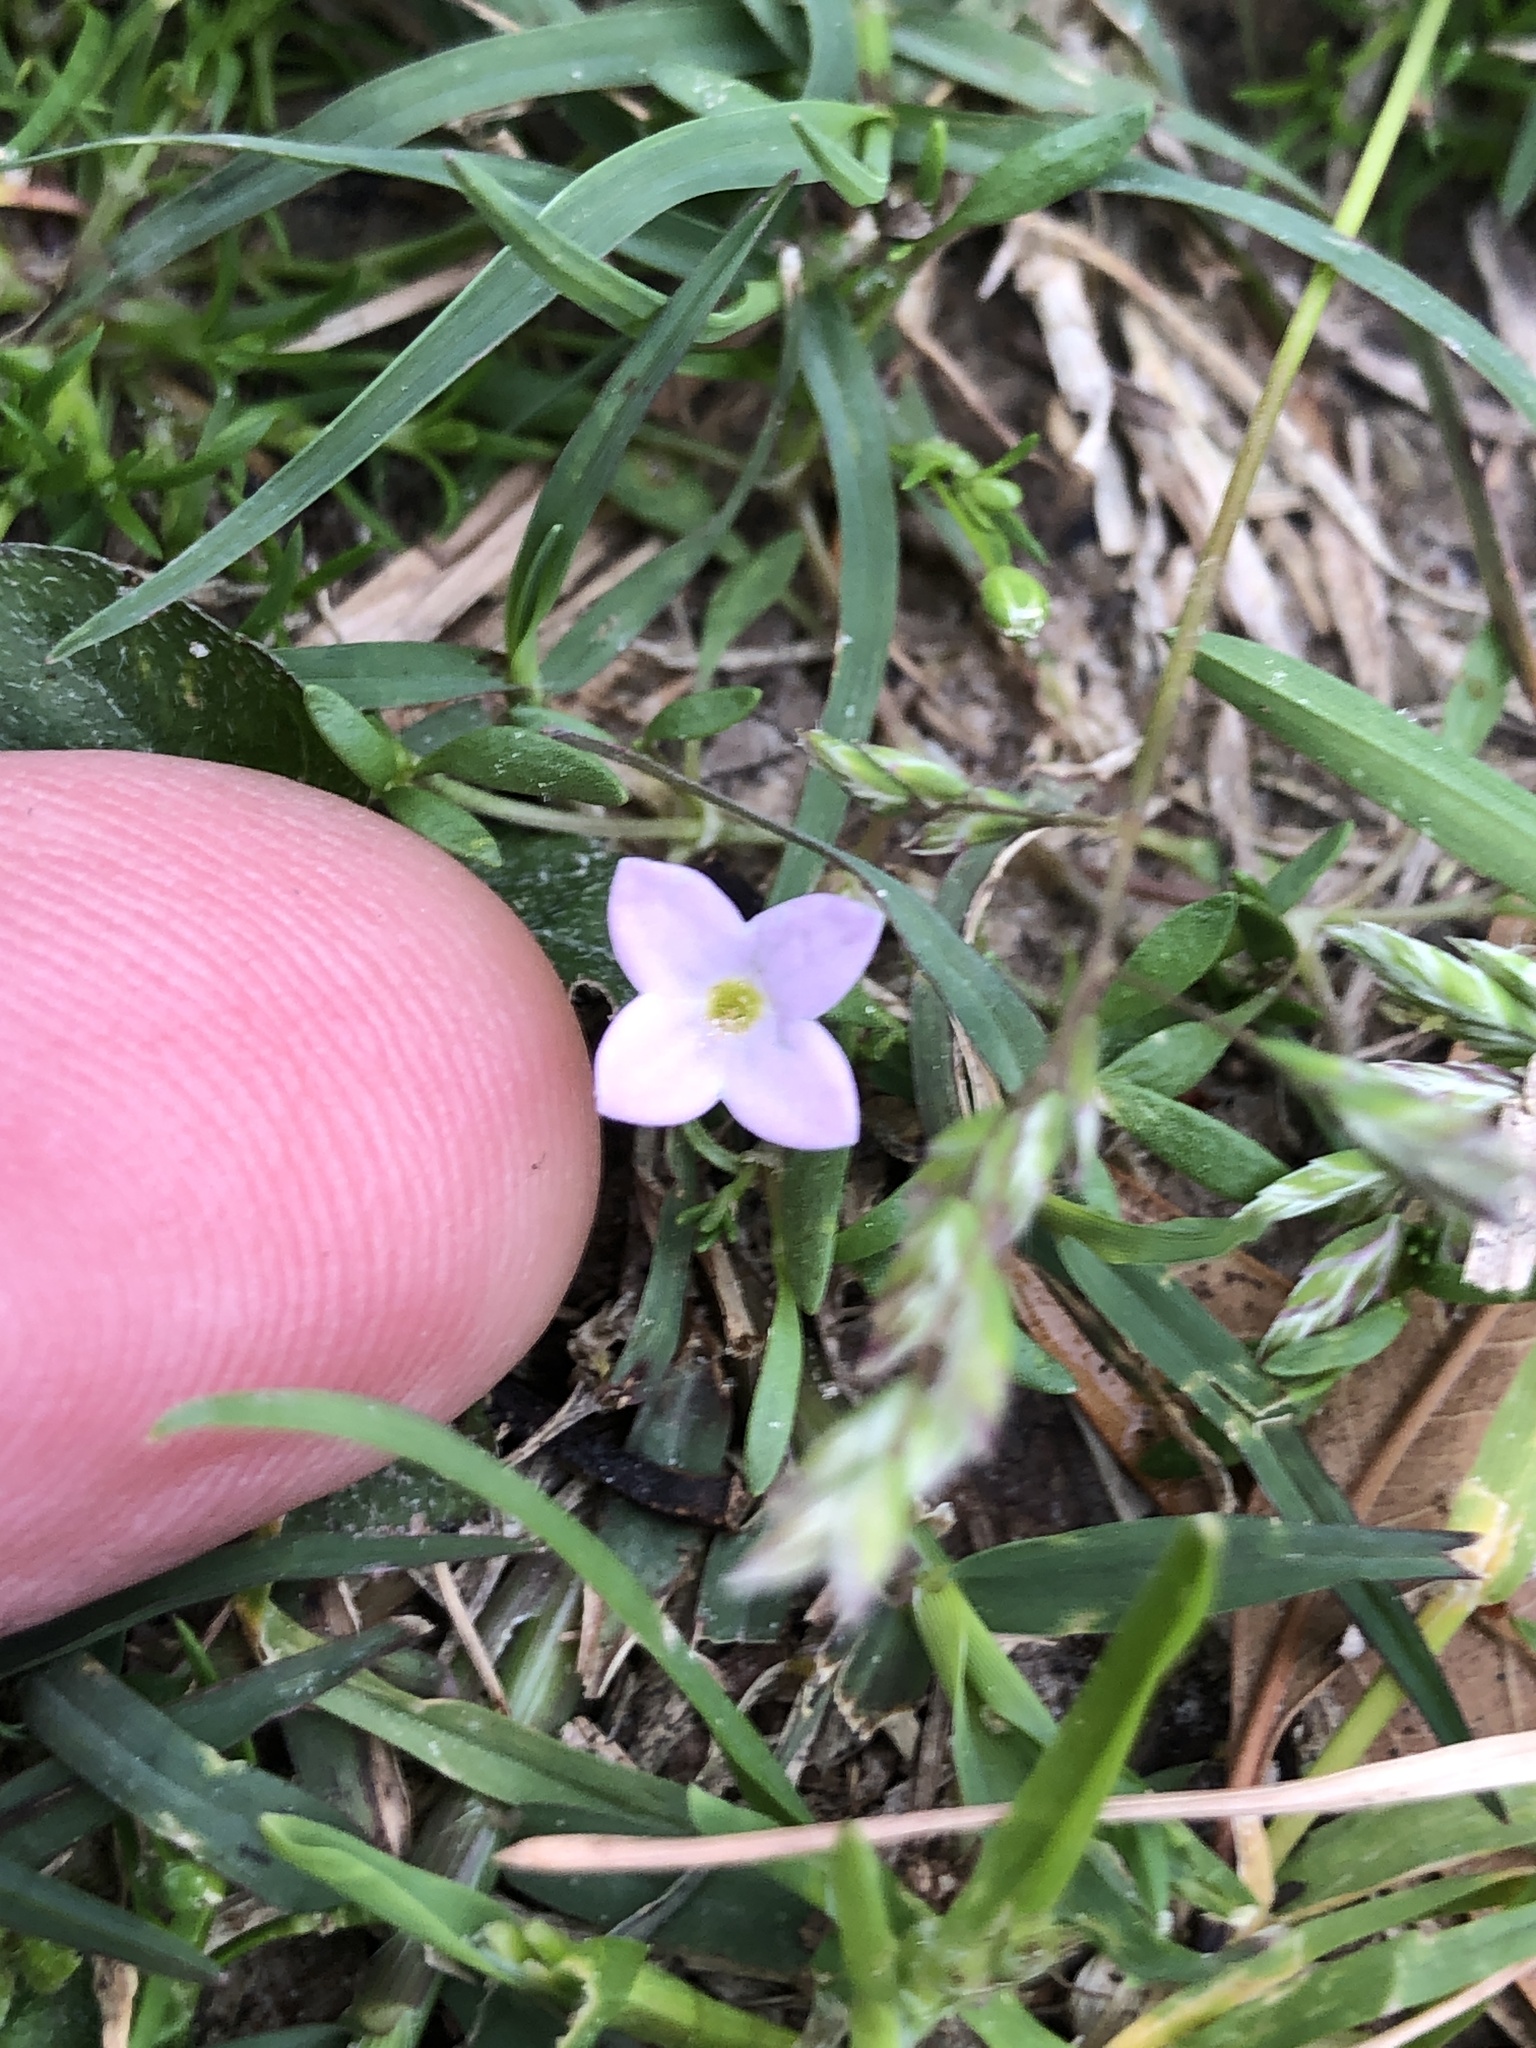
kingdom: Plantae
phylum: Tracheophyta
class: Magnoliopsida
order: Gentianales
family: Rubiaceae
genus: Houstonia
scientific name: Houstonia rosea
